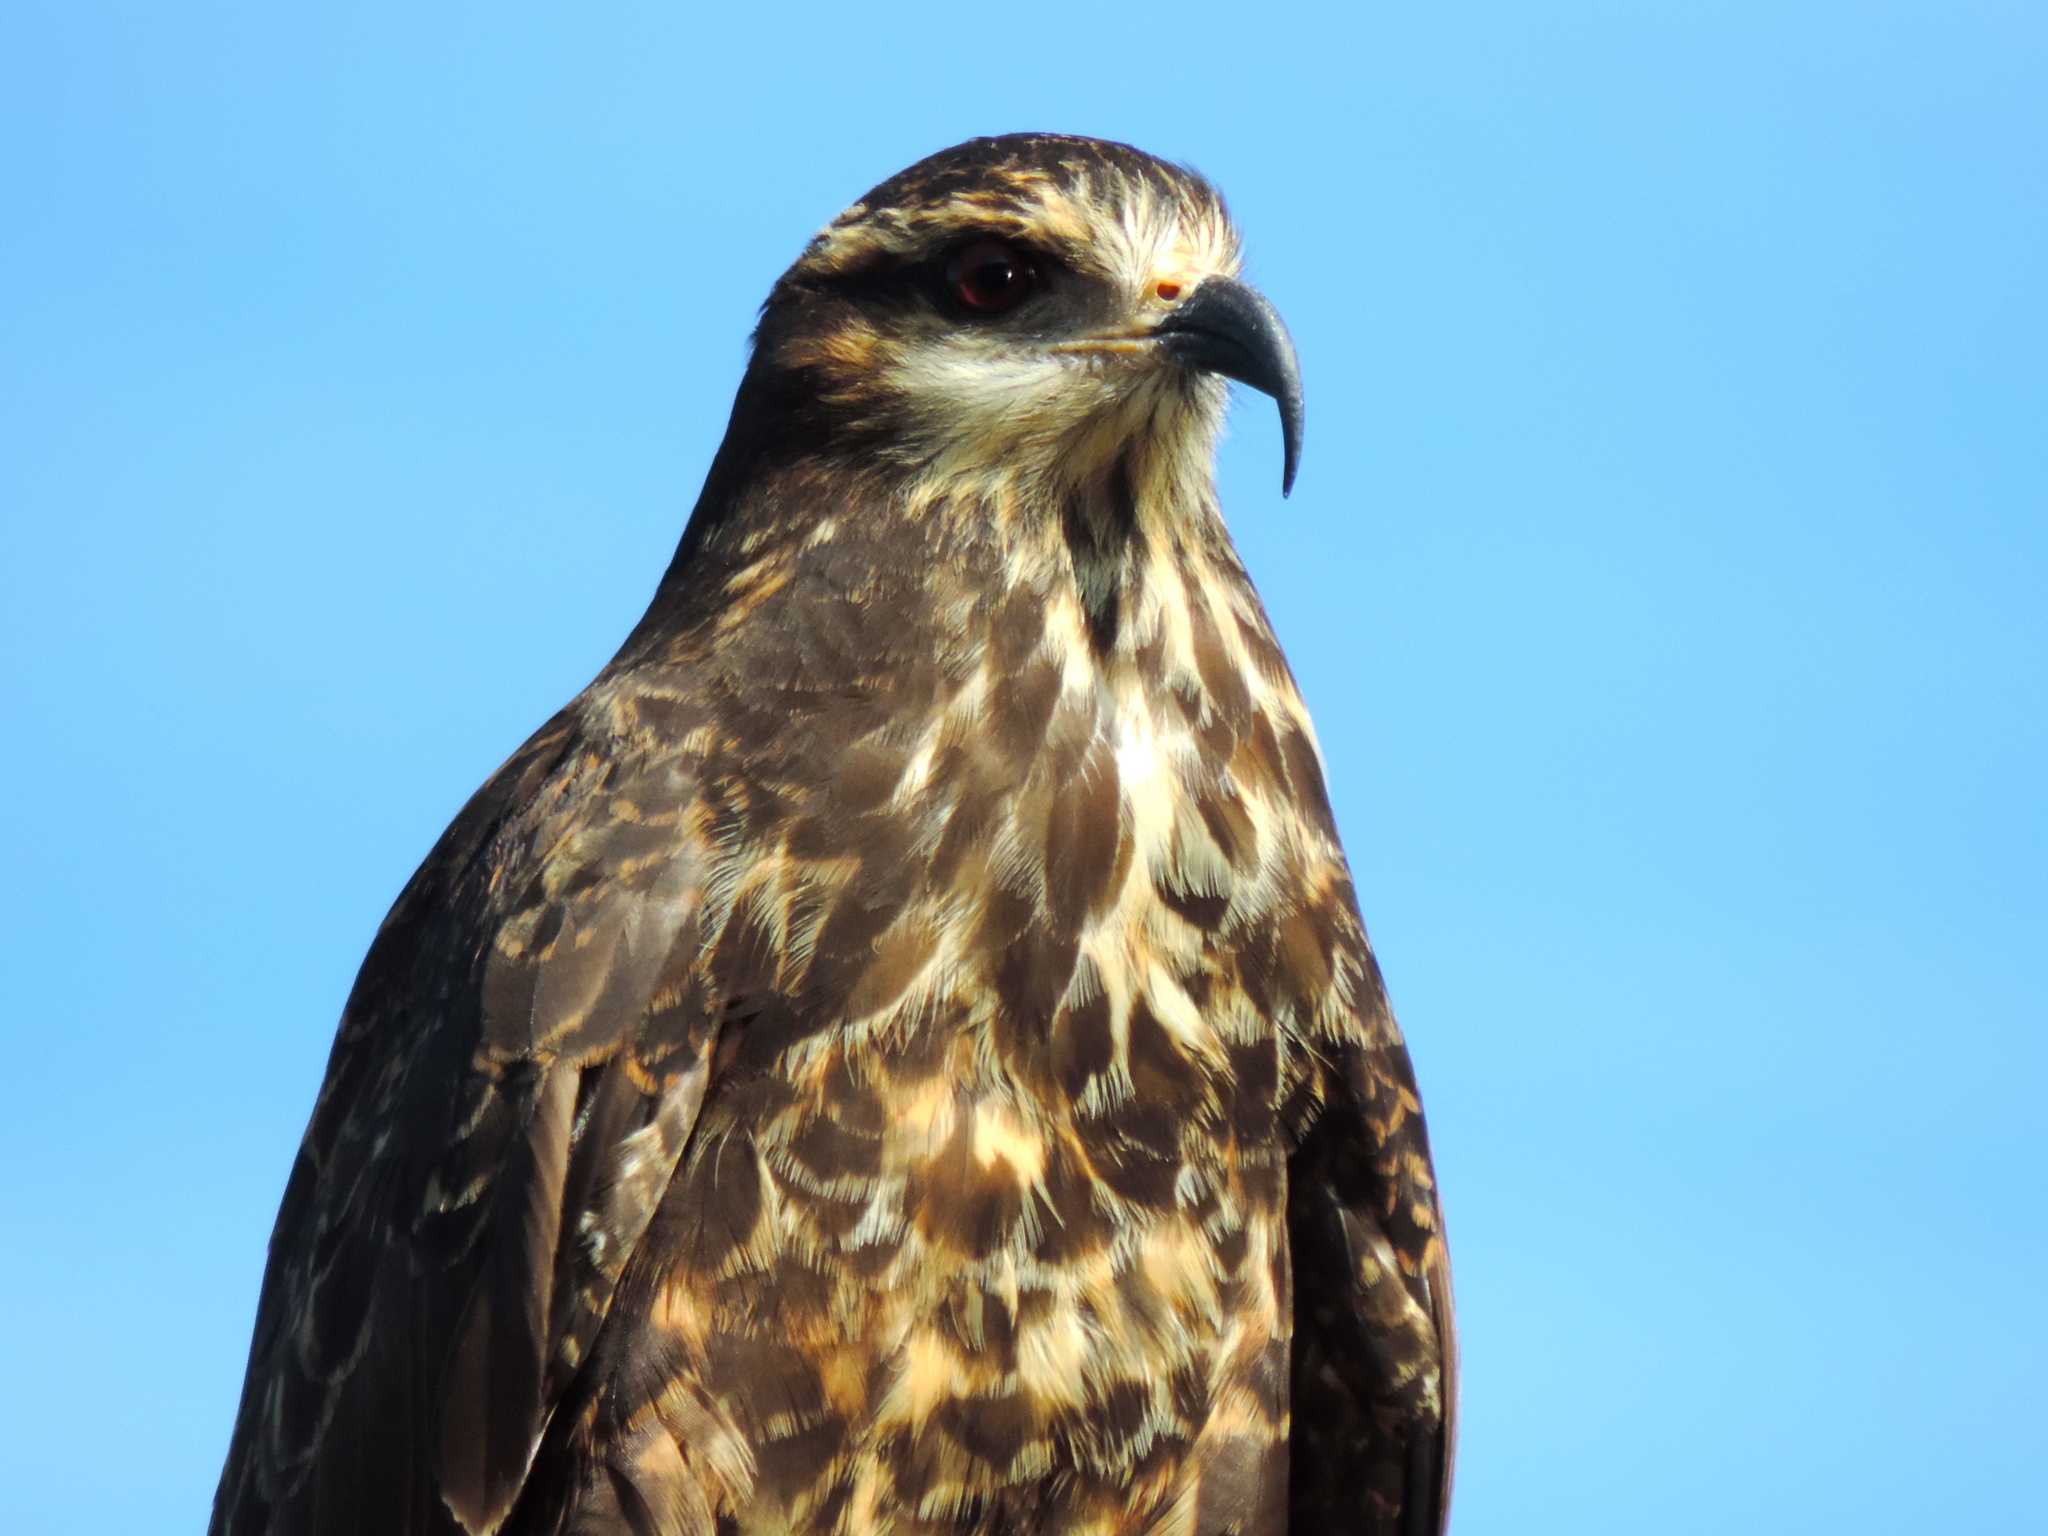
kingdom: Animalia
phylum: Chordata
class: Aves
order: Accipitriformes
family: Accipitridae
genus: Rostrhamus
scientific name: Rostrhamus sociabilis
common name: Snail kite
